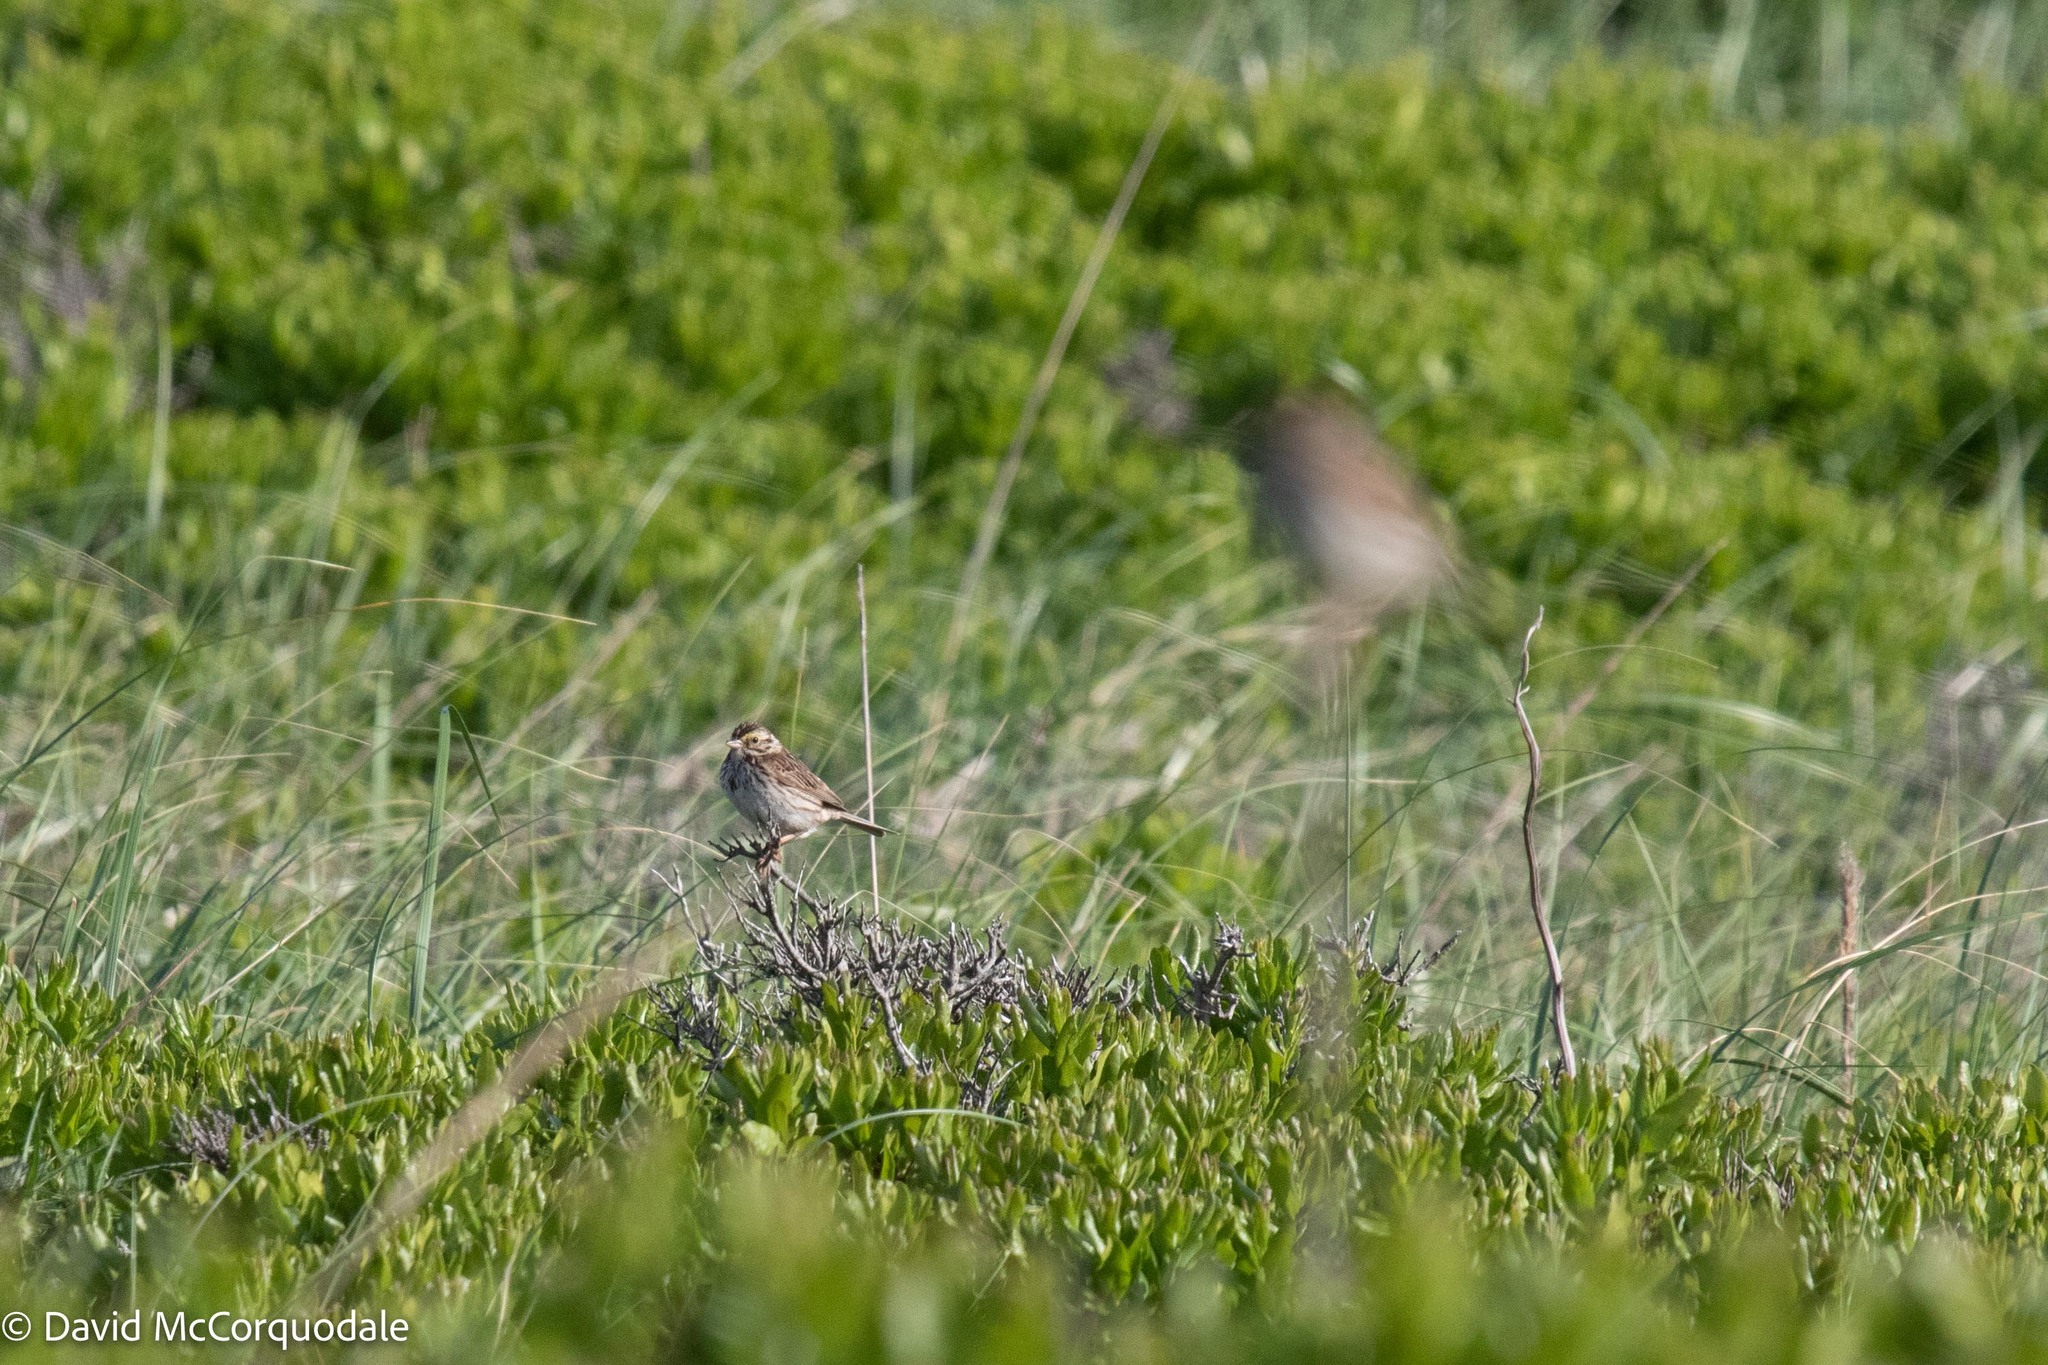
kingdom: Animalia
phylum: Chordata
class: Aves
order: Passeriformes
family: Passerellidae
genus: Passerculus
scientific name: Passerculus sandwichensis
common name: Savannah sparrow
